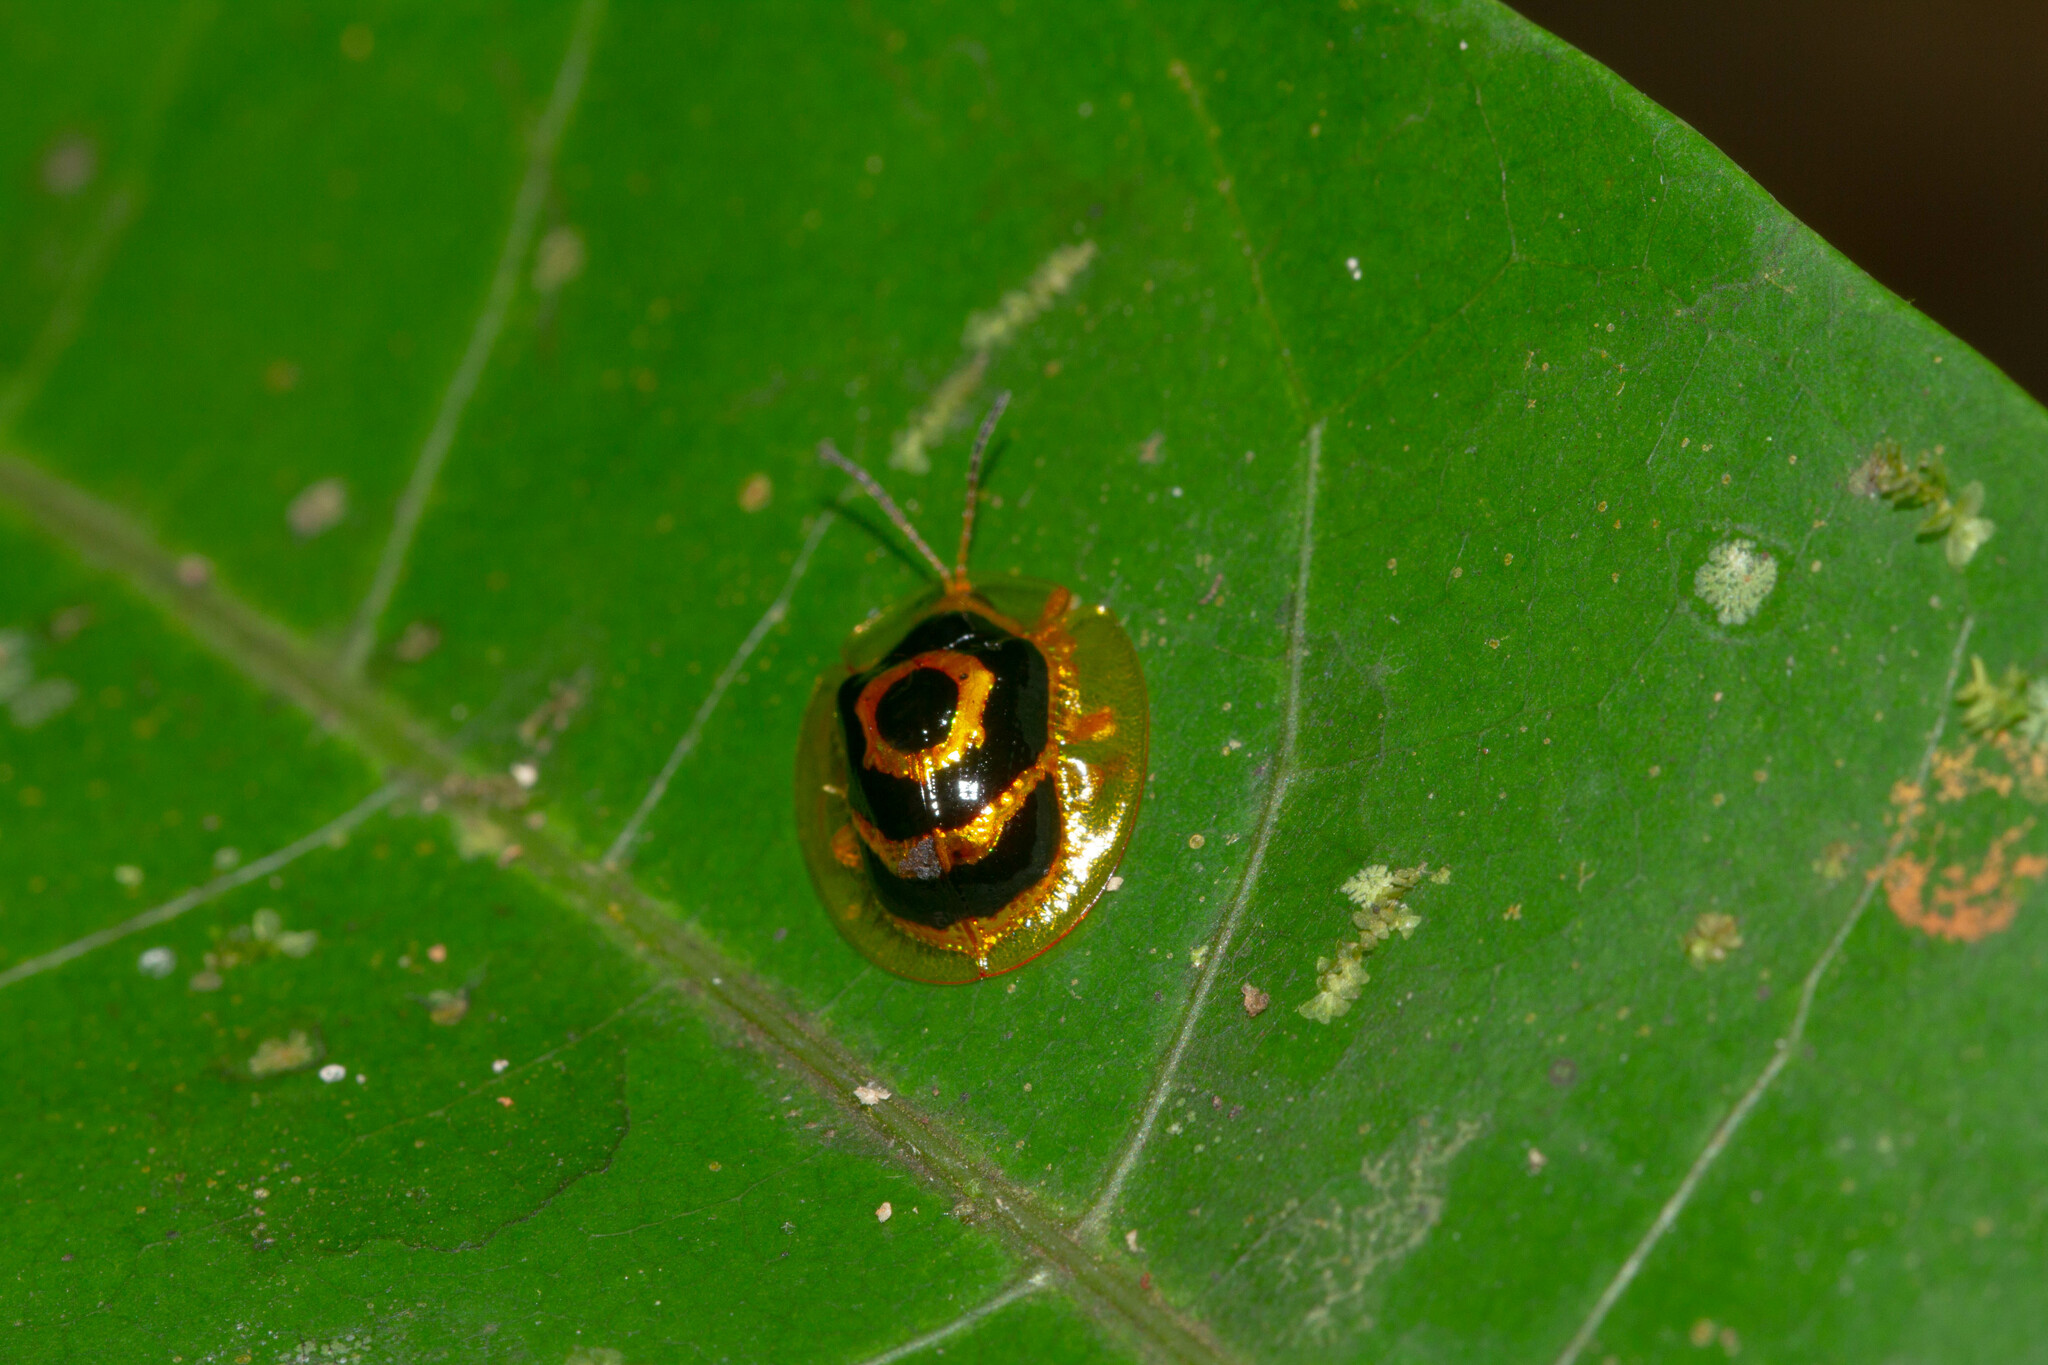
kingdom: Animalia
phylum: Arthropoda
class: Insecta
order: Coleoptera
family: Chrysomelidae
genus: Ischnocodia
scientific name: Ischnocodia annulus
